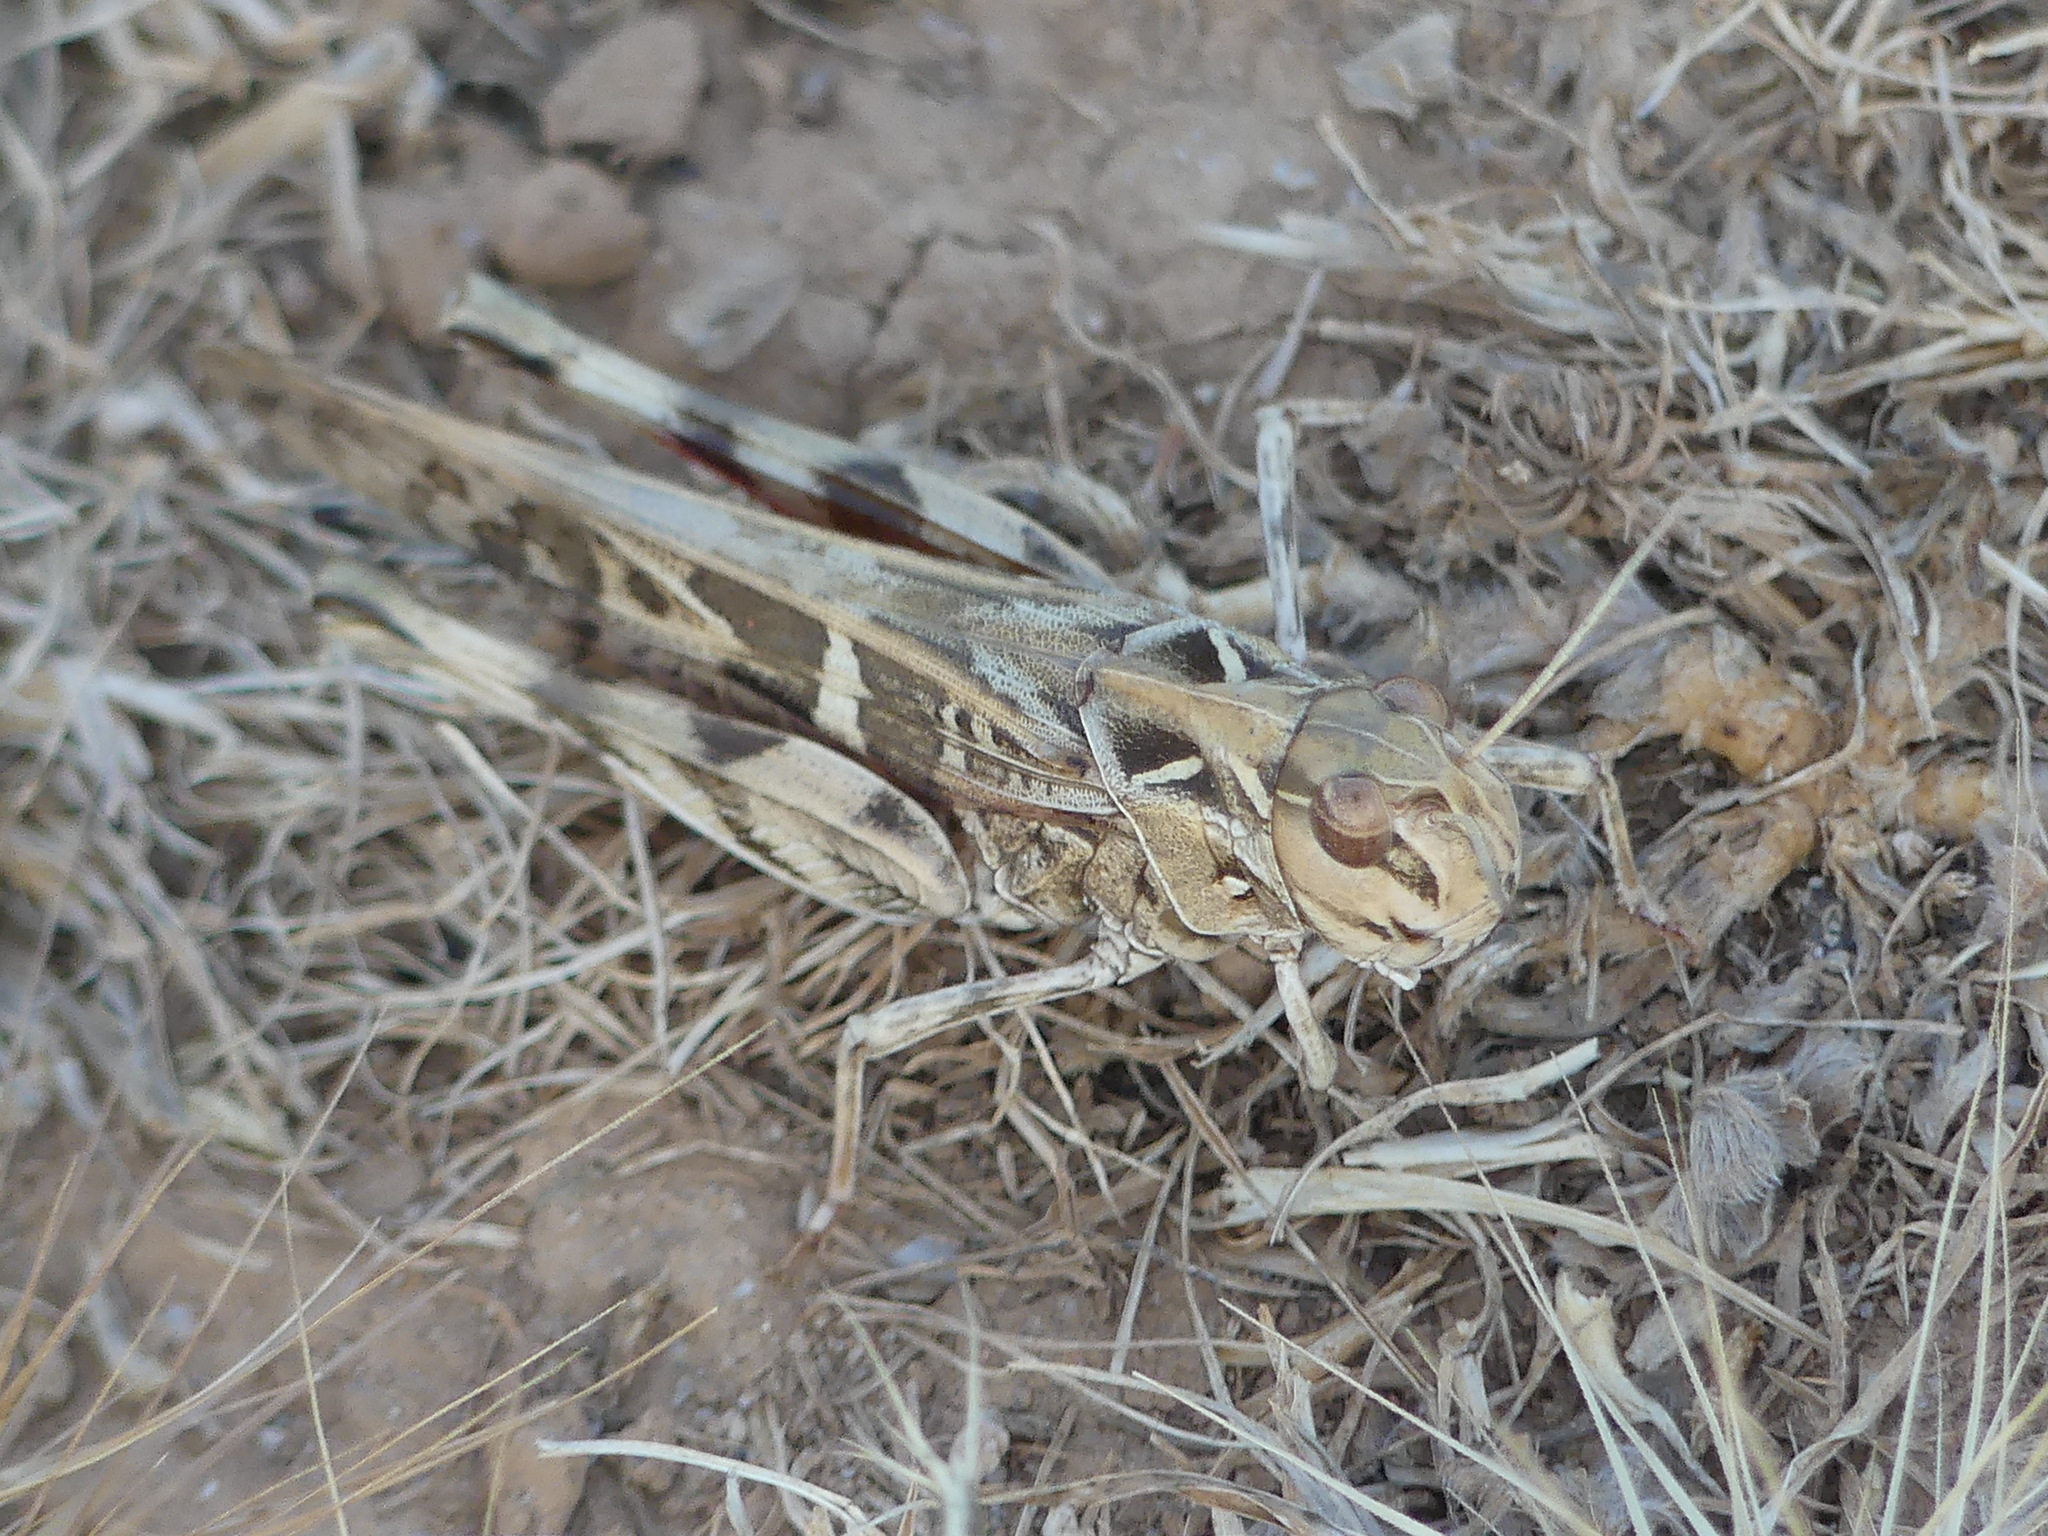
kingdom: Animalia
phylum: Arthropoda
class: Insecta
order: Orthoptera
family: Acrididae
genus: Oedaleus
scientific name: Oedaleus decorus
